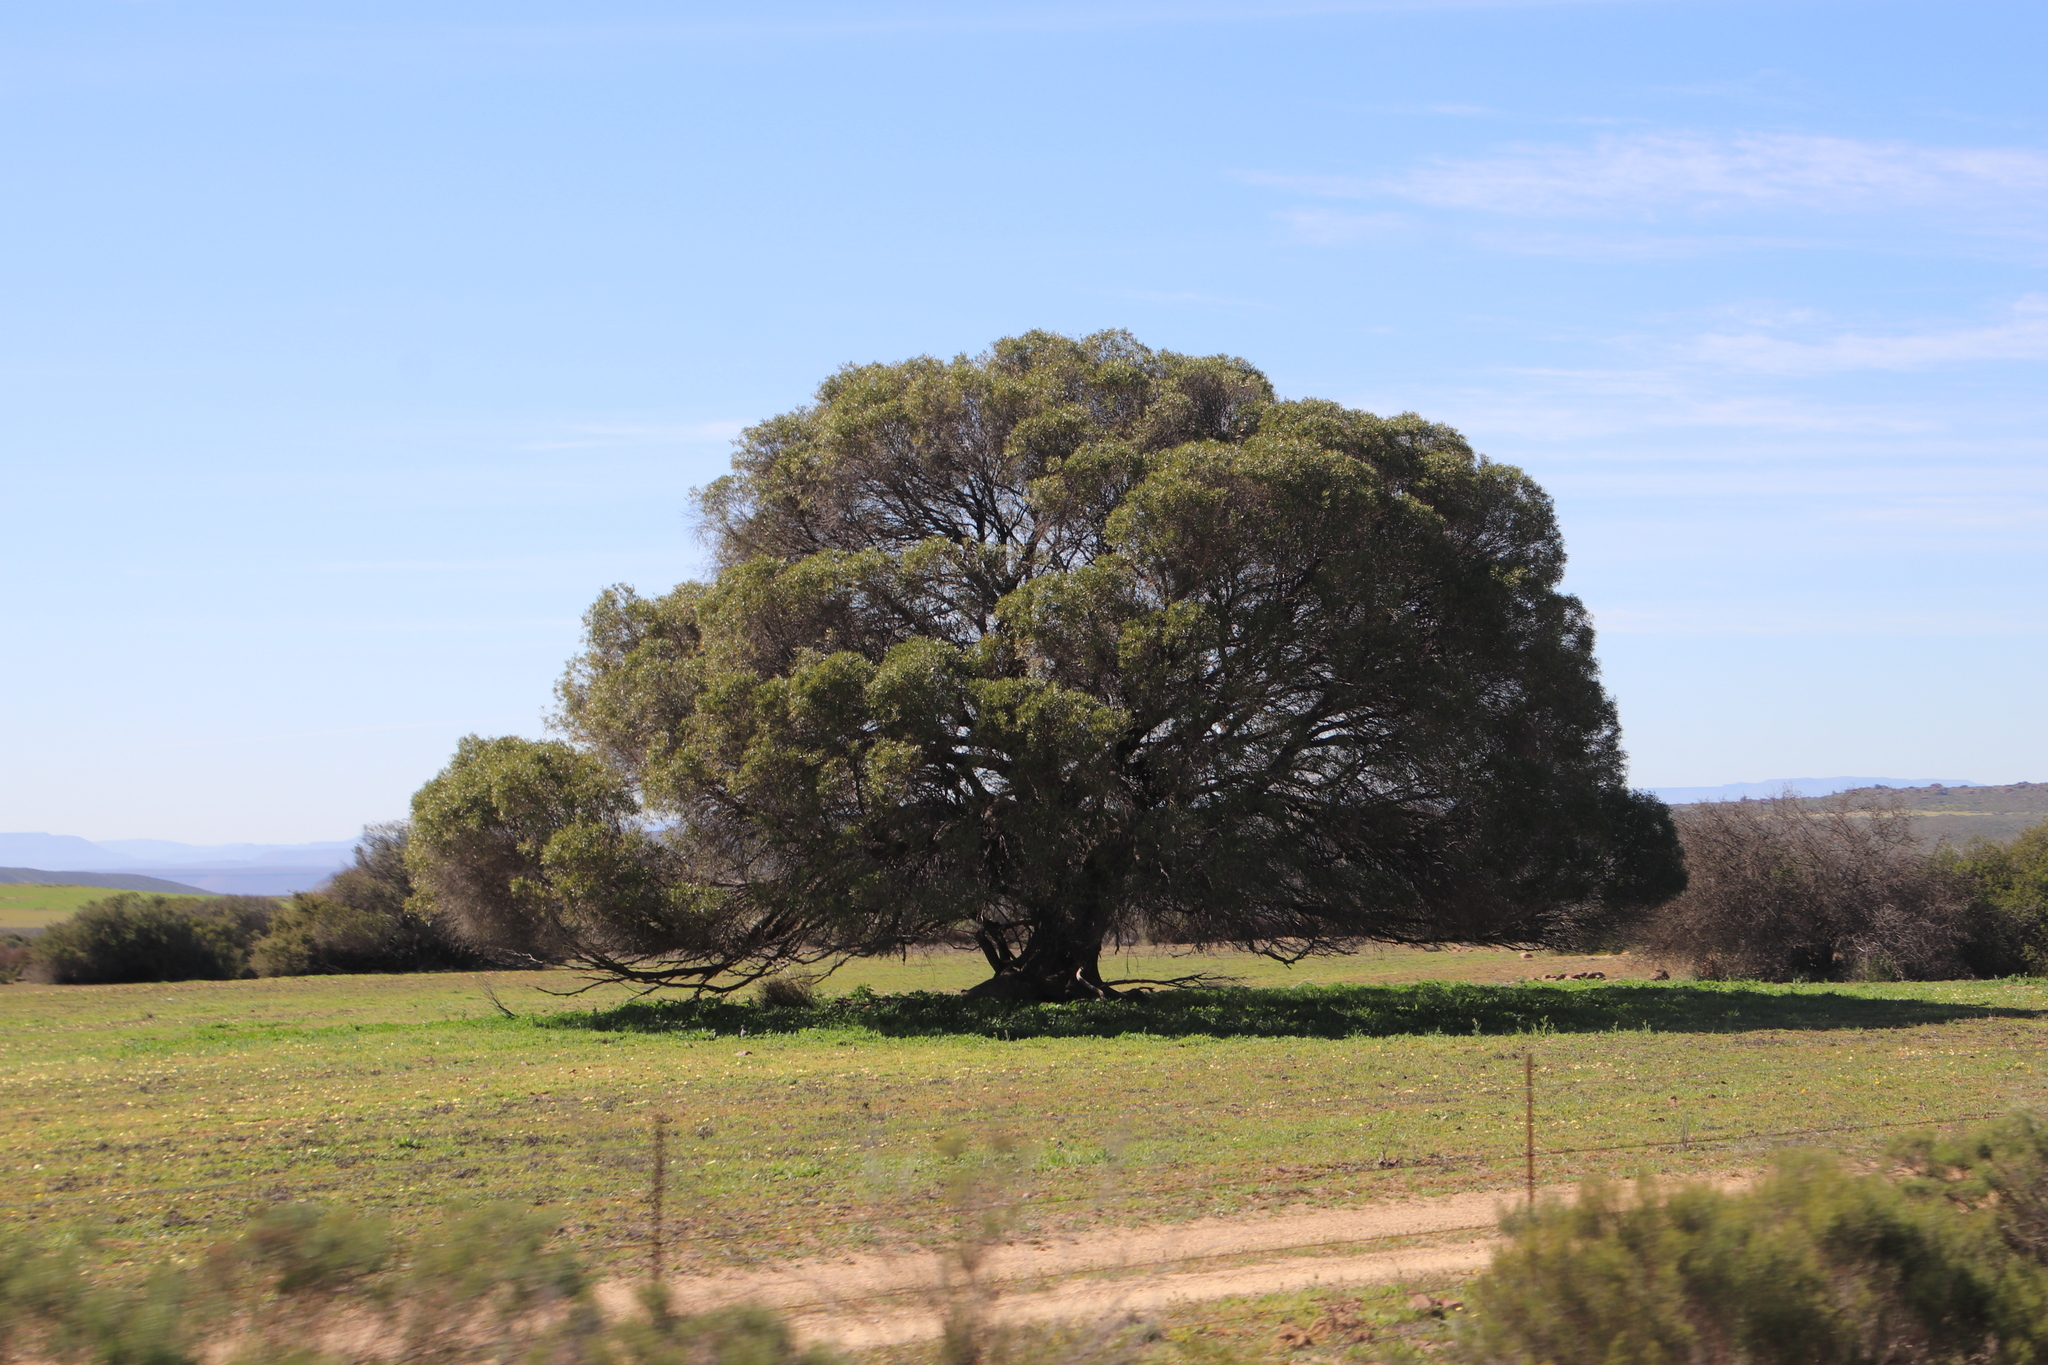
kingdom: Plantae
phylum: Tracheophyta
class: Magnoliopsida
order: Lamiales
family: Oleaceae
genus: Olea
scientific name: Olea europaea
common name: Olive
